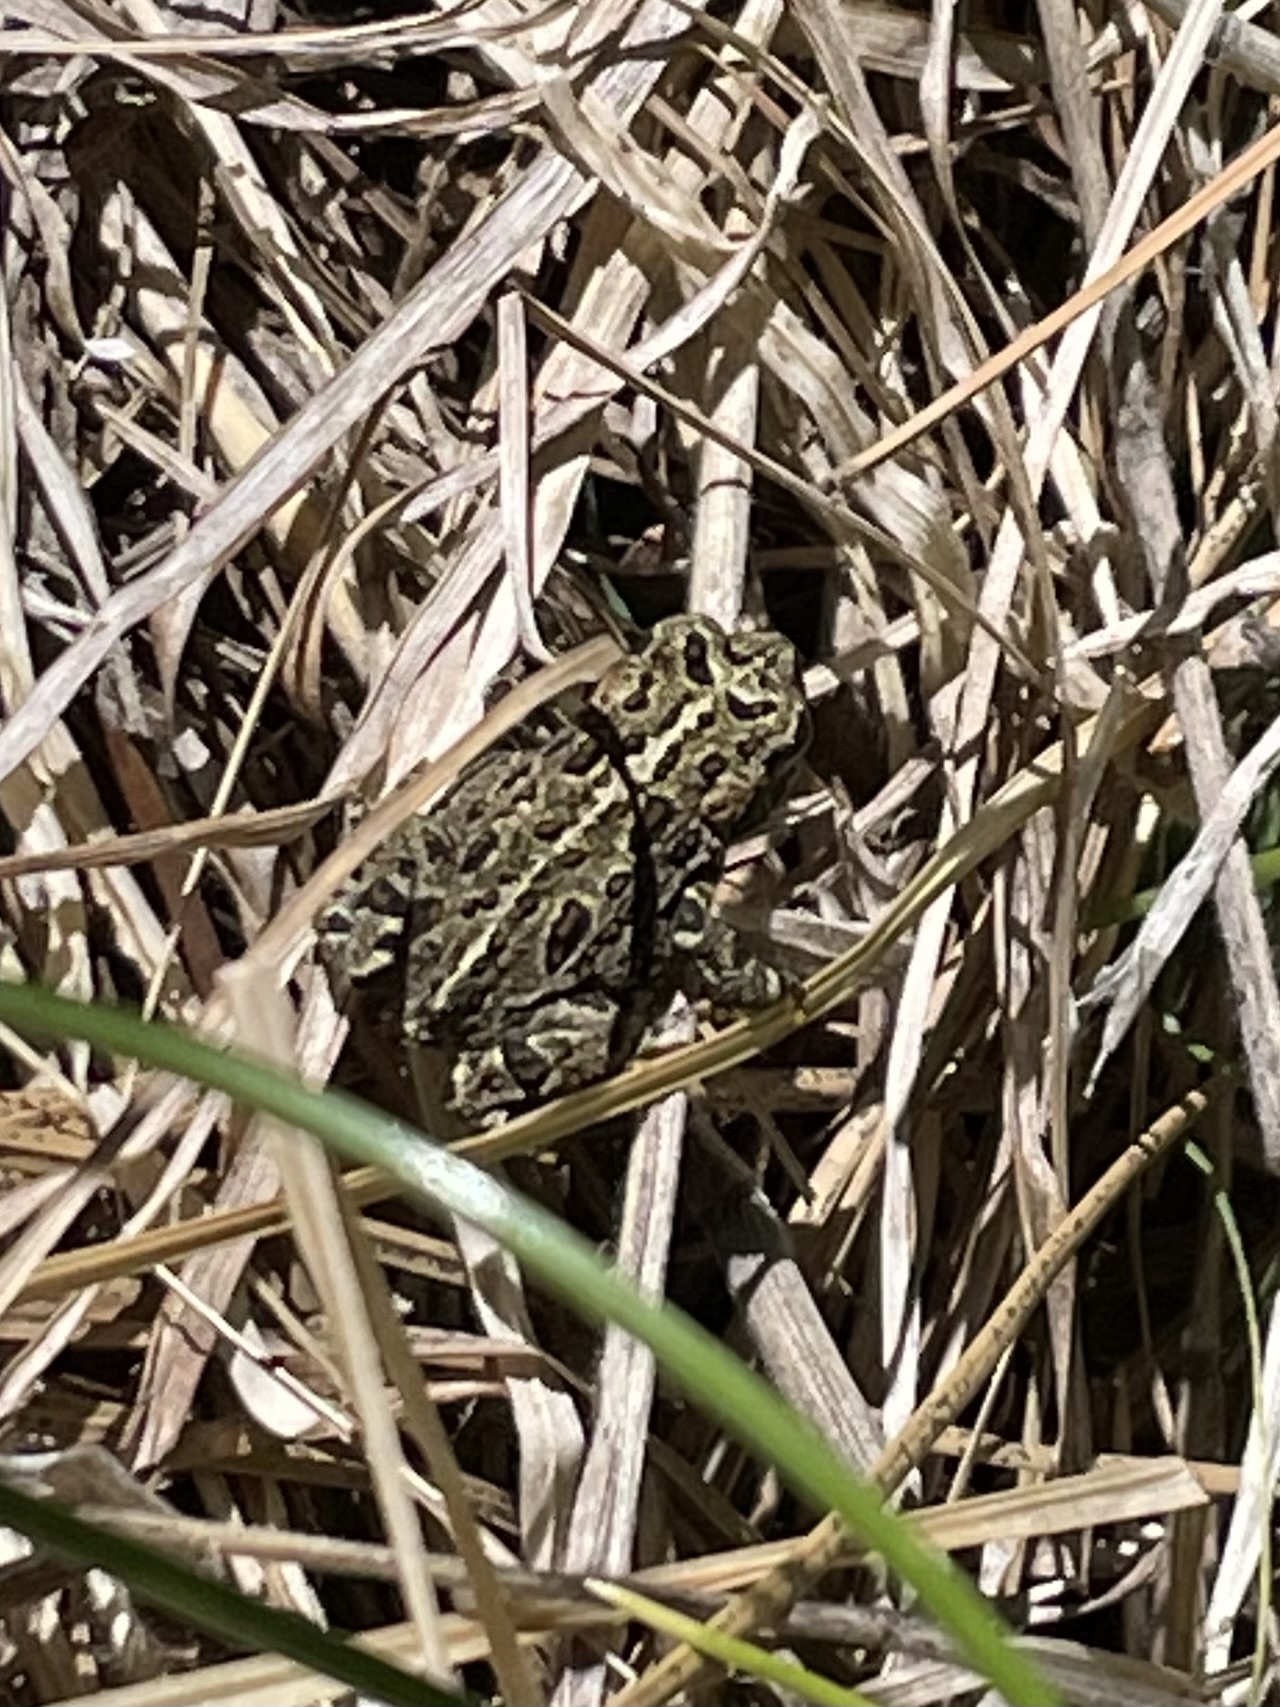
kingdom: Animalia
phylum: Chordata
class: Amphibia
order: Anura
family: Bufonidae
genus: Anaxyrus
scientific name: Anaxyrus boreas
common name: Western toad
